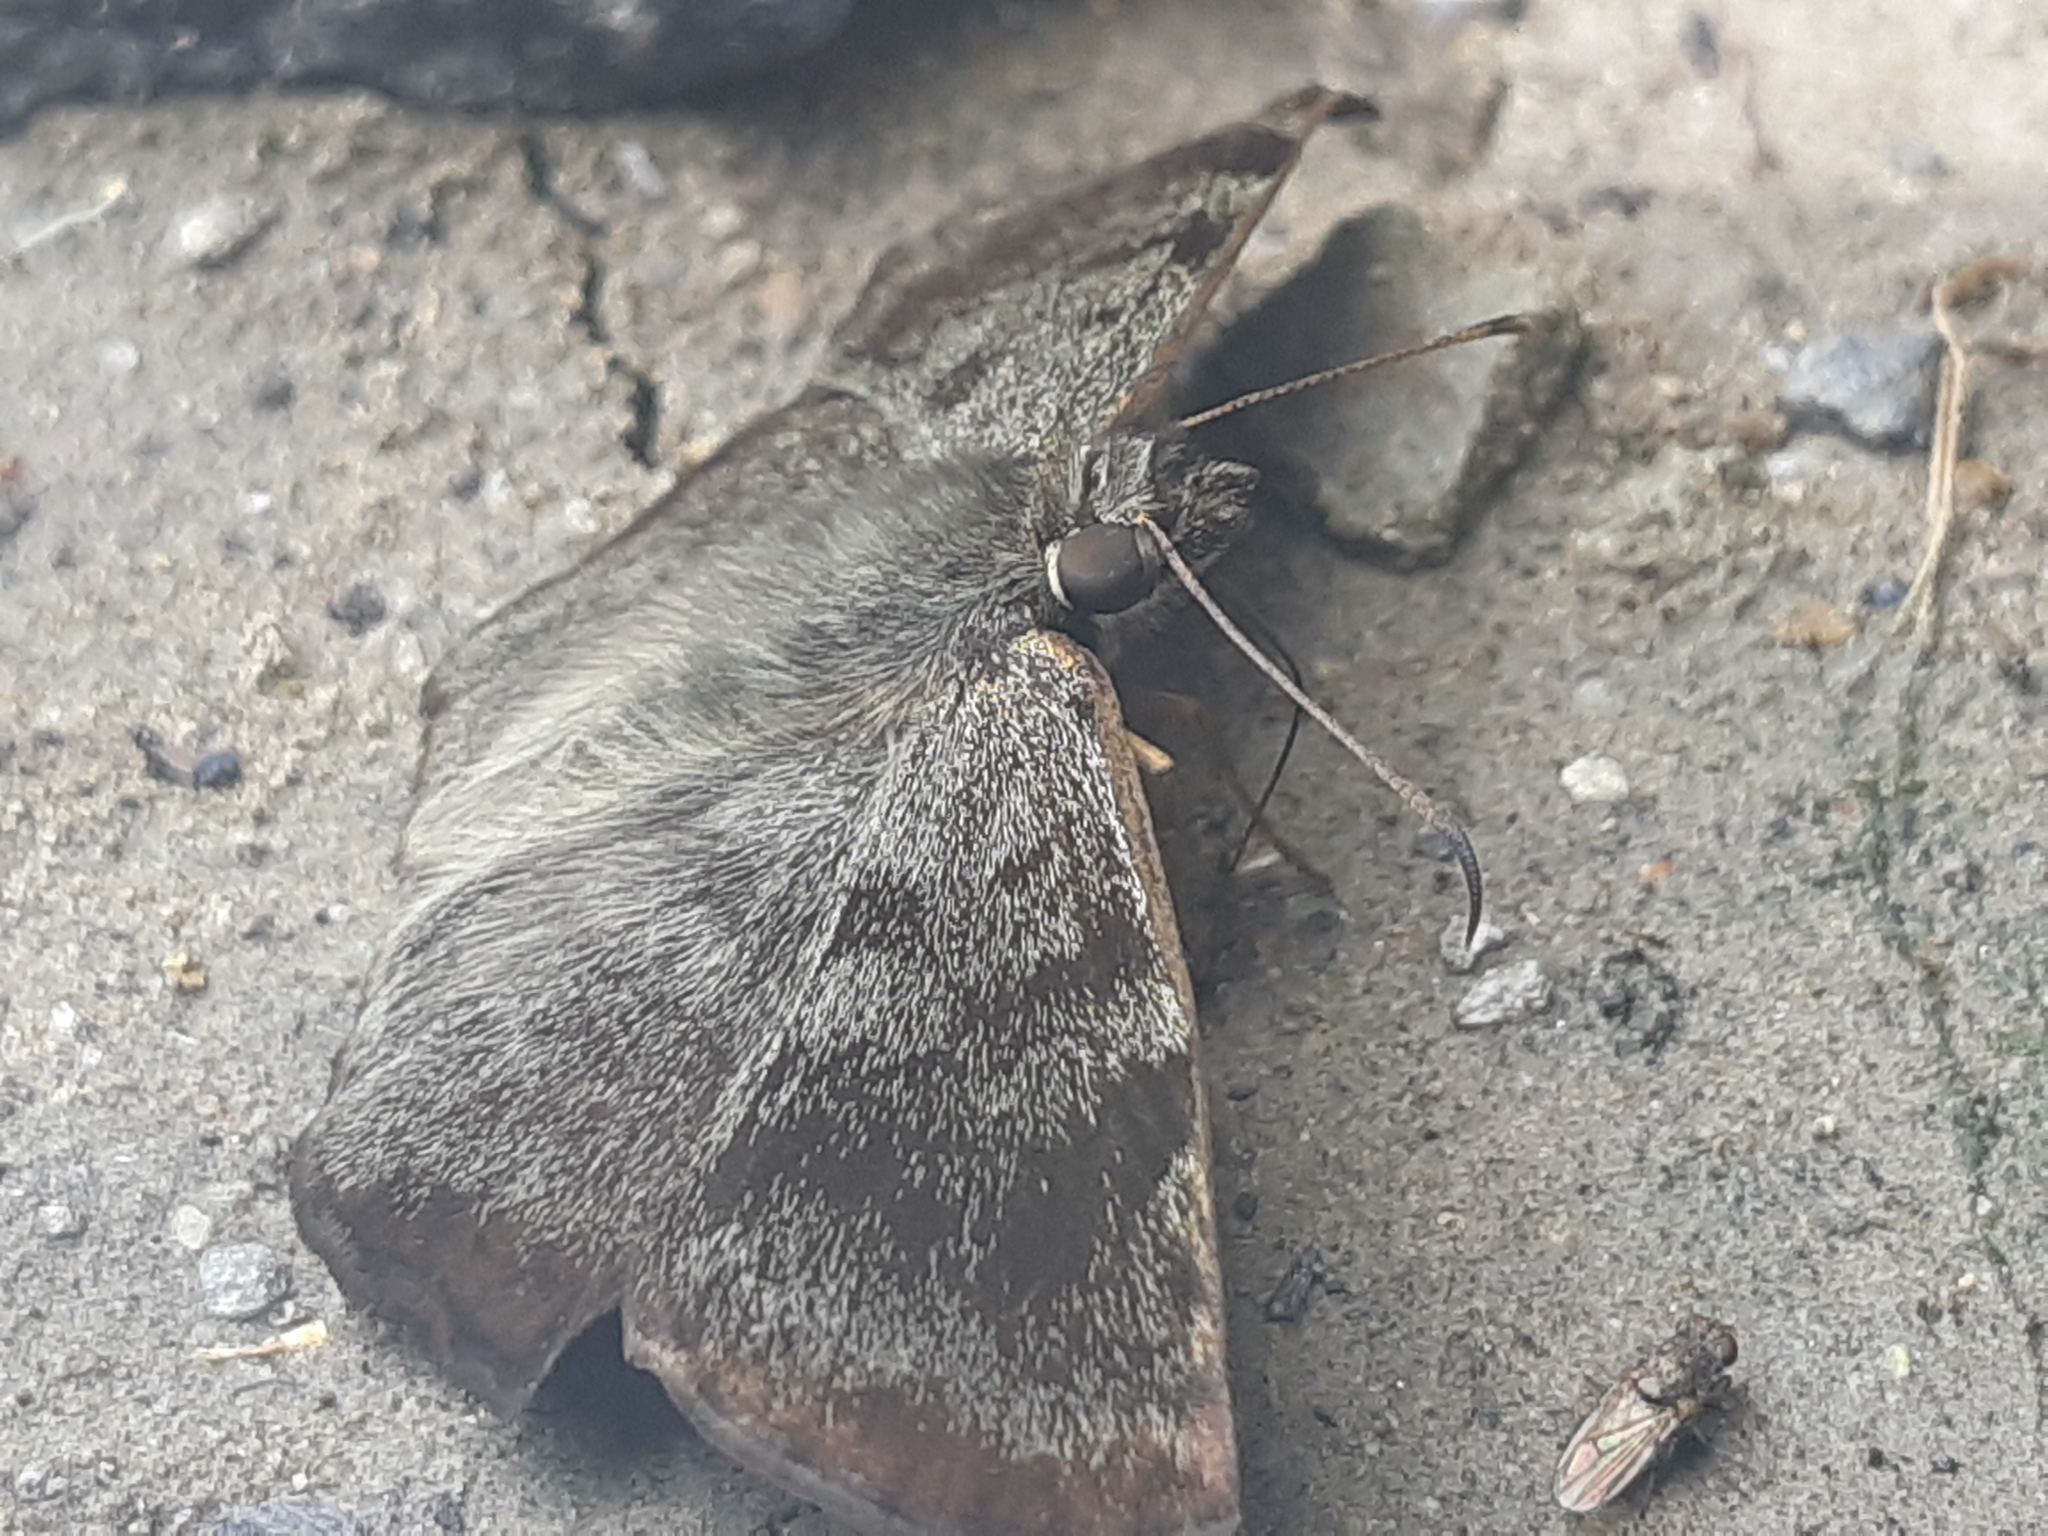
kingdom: Animalia
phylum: Arthropoda
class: Insecta
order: Lepidoptera
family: Hesperiidae
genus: Antigonus
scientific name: Antigonus erosus
